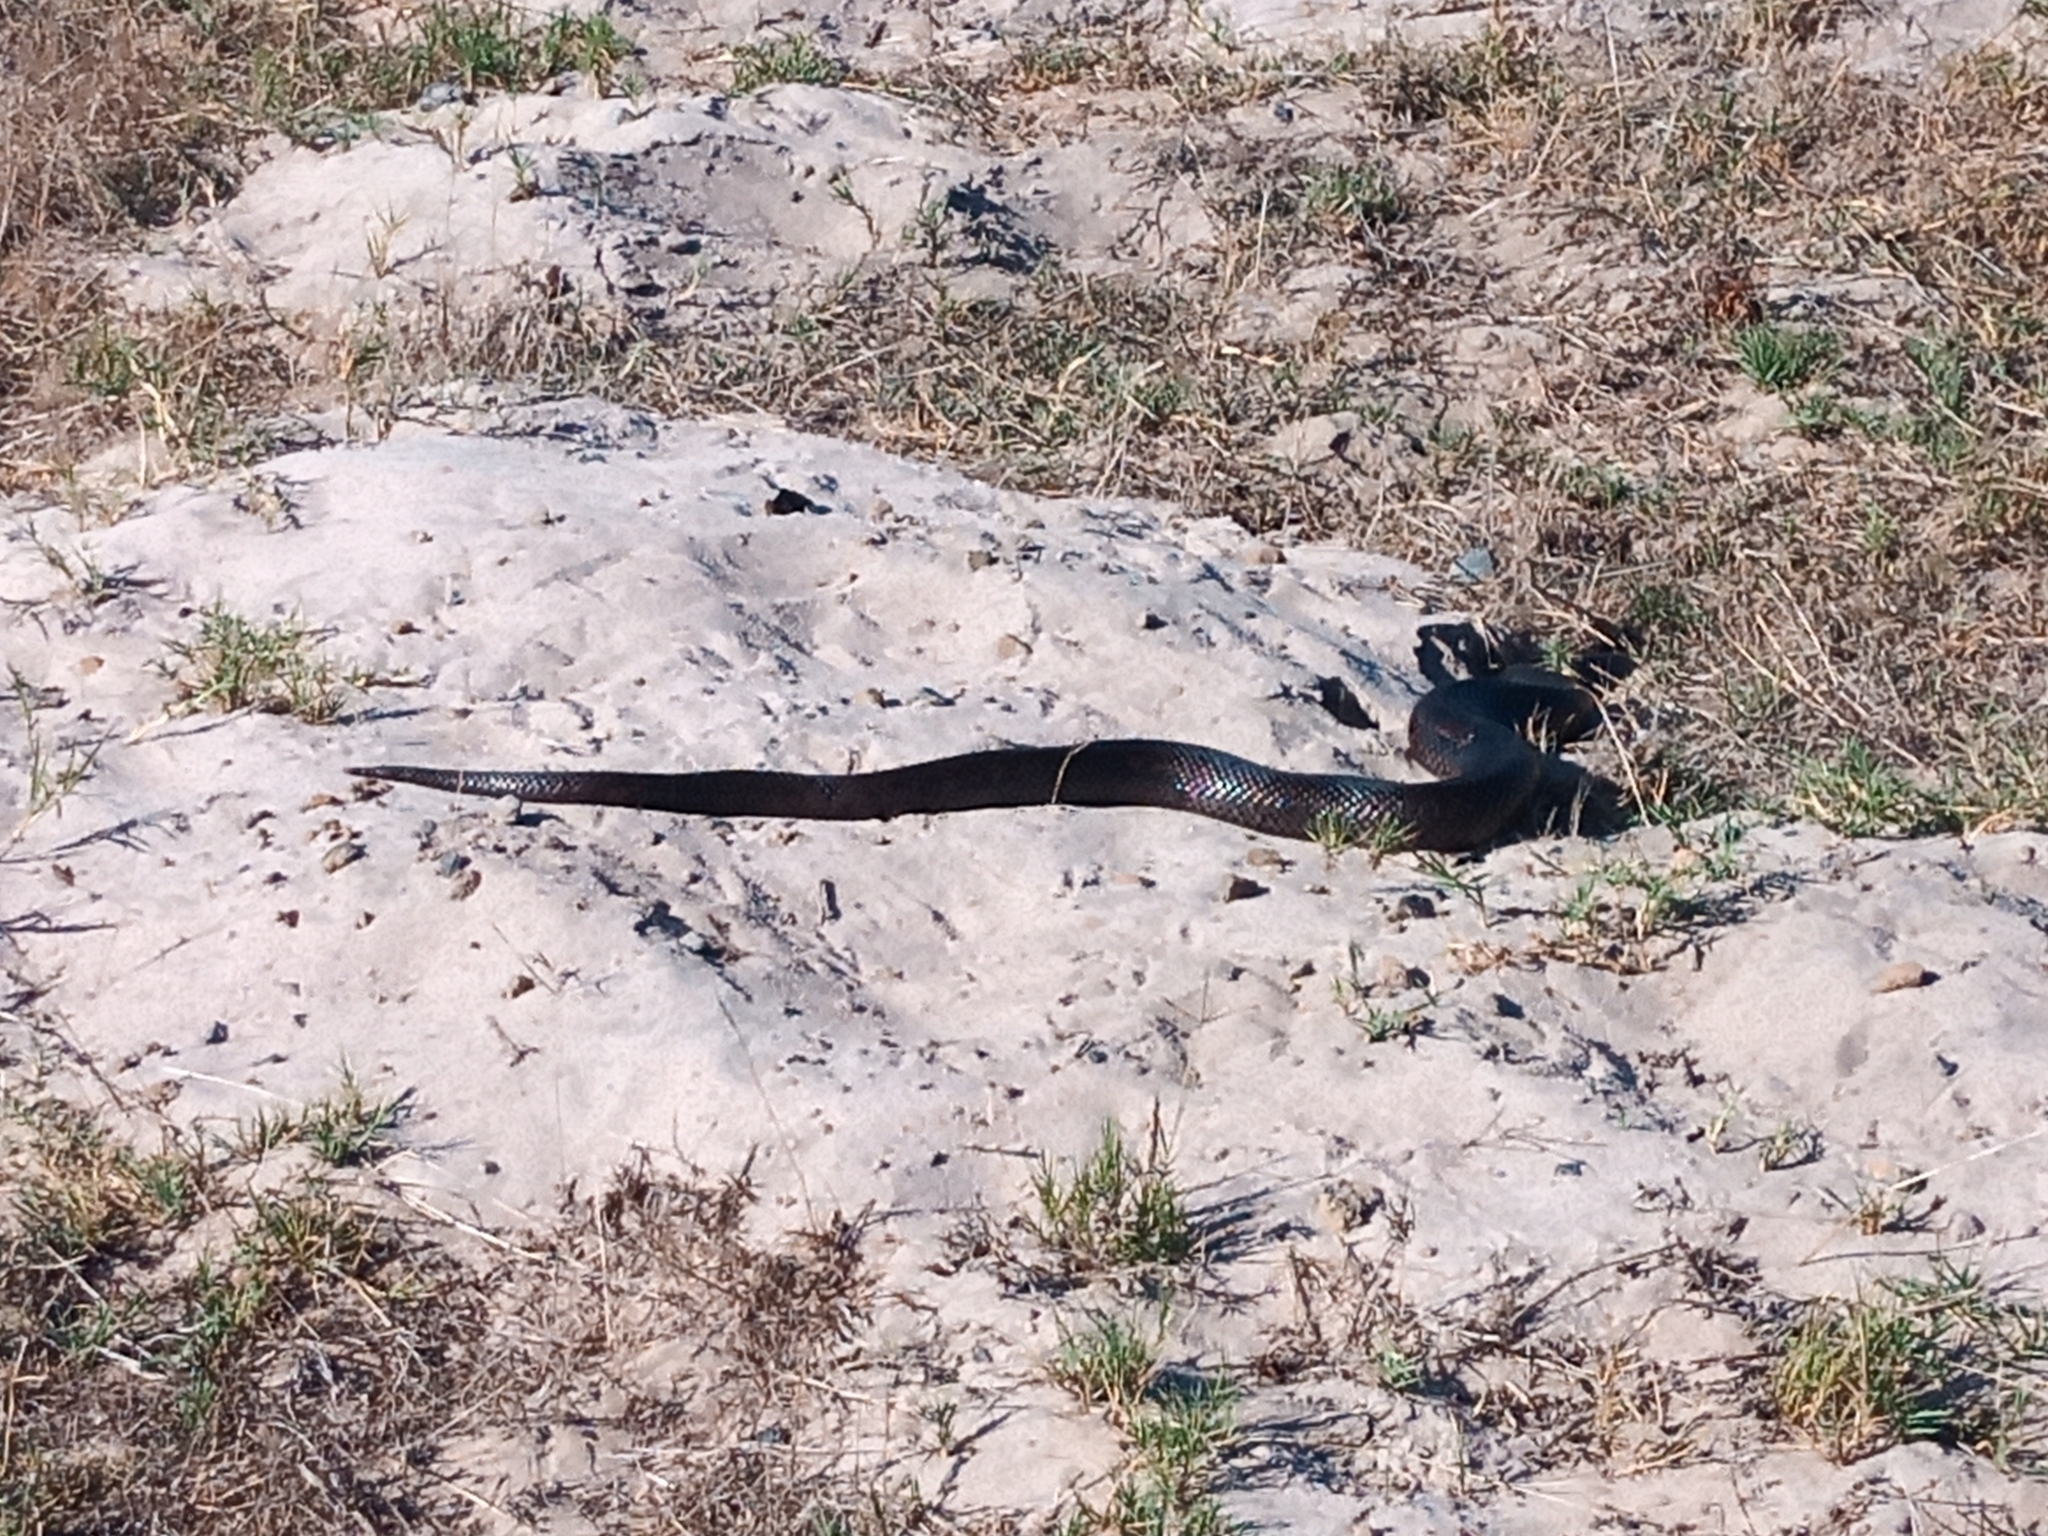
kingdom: Animalia
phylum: Chordata
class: Squamata
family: Pseudaspididae
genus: Pseudaspis
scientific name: Pseudaspis cana
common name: Mole snake
